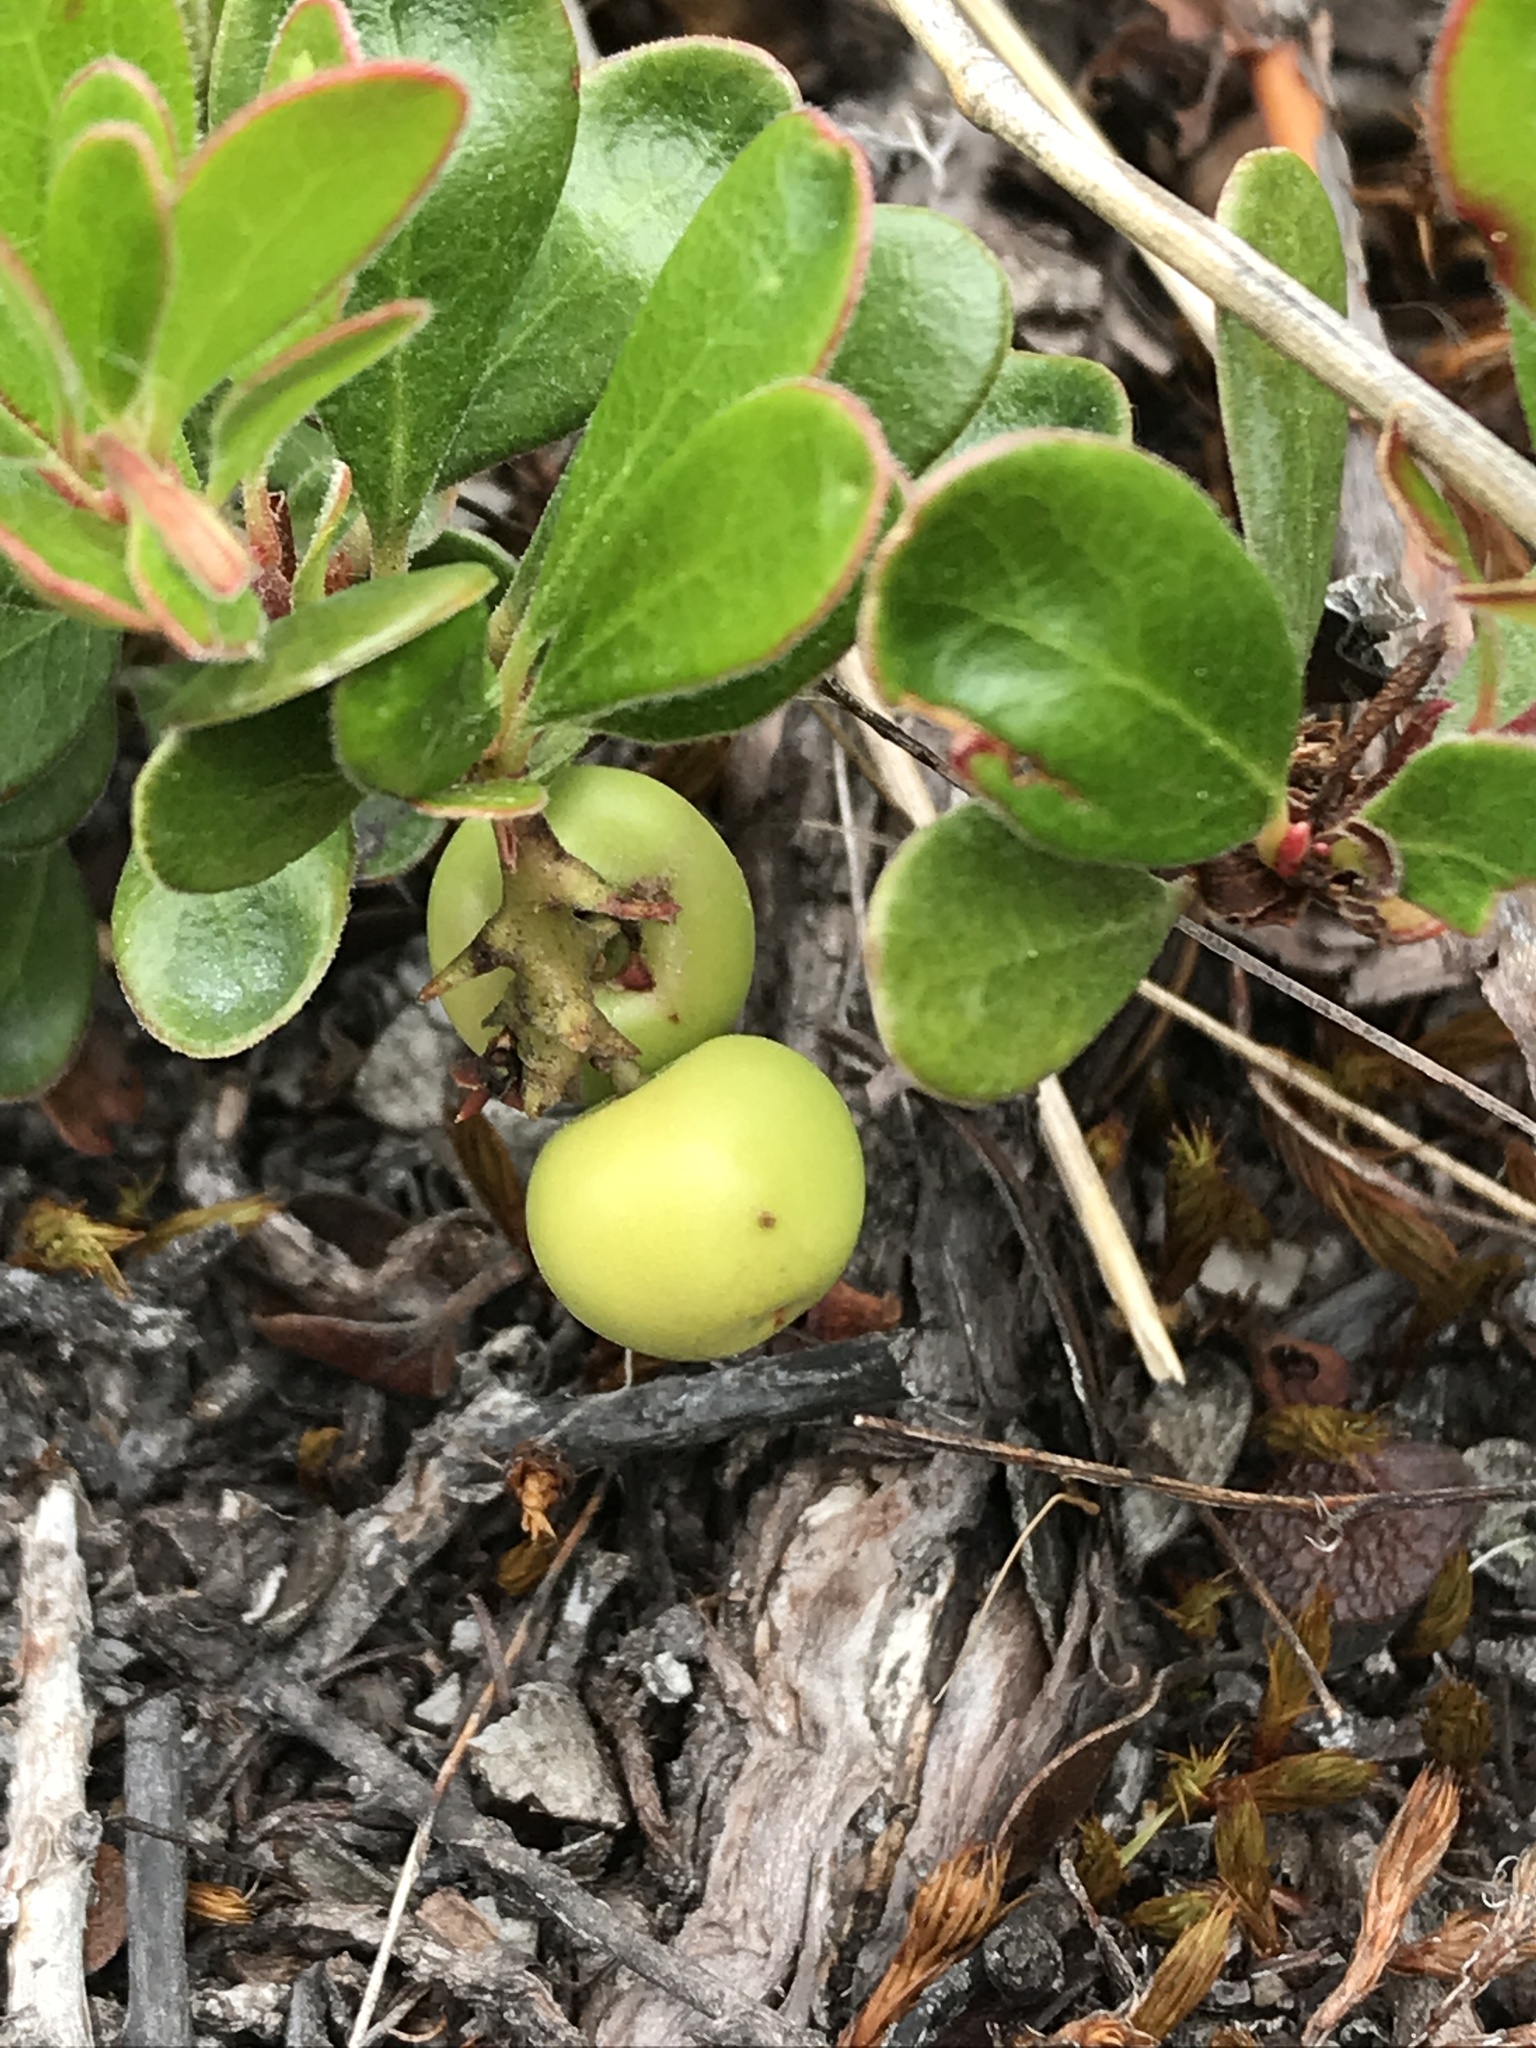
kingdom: Plantae
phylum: Tracheophyta
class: Magnoliopsida
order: Ericales
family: Ericaceae
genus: Arctostaphylos
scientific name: Arctostaphylos uva-ursi
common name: Bearberry
